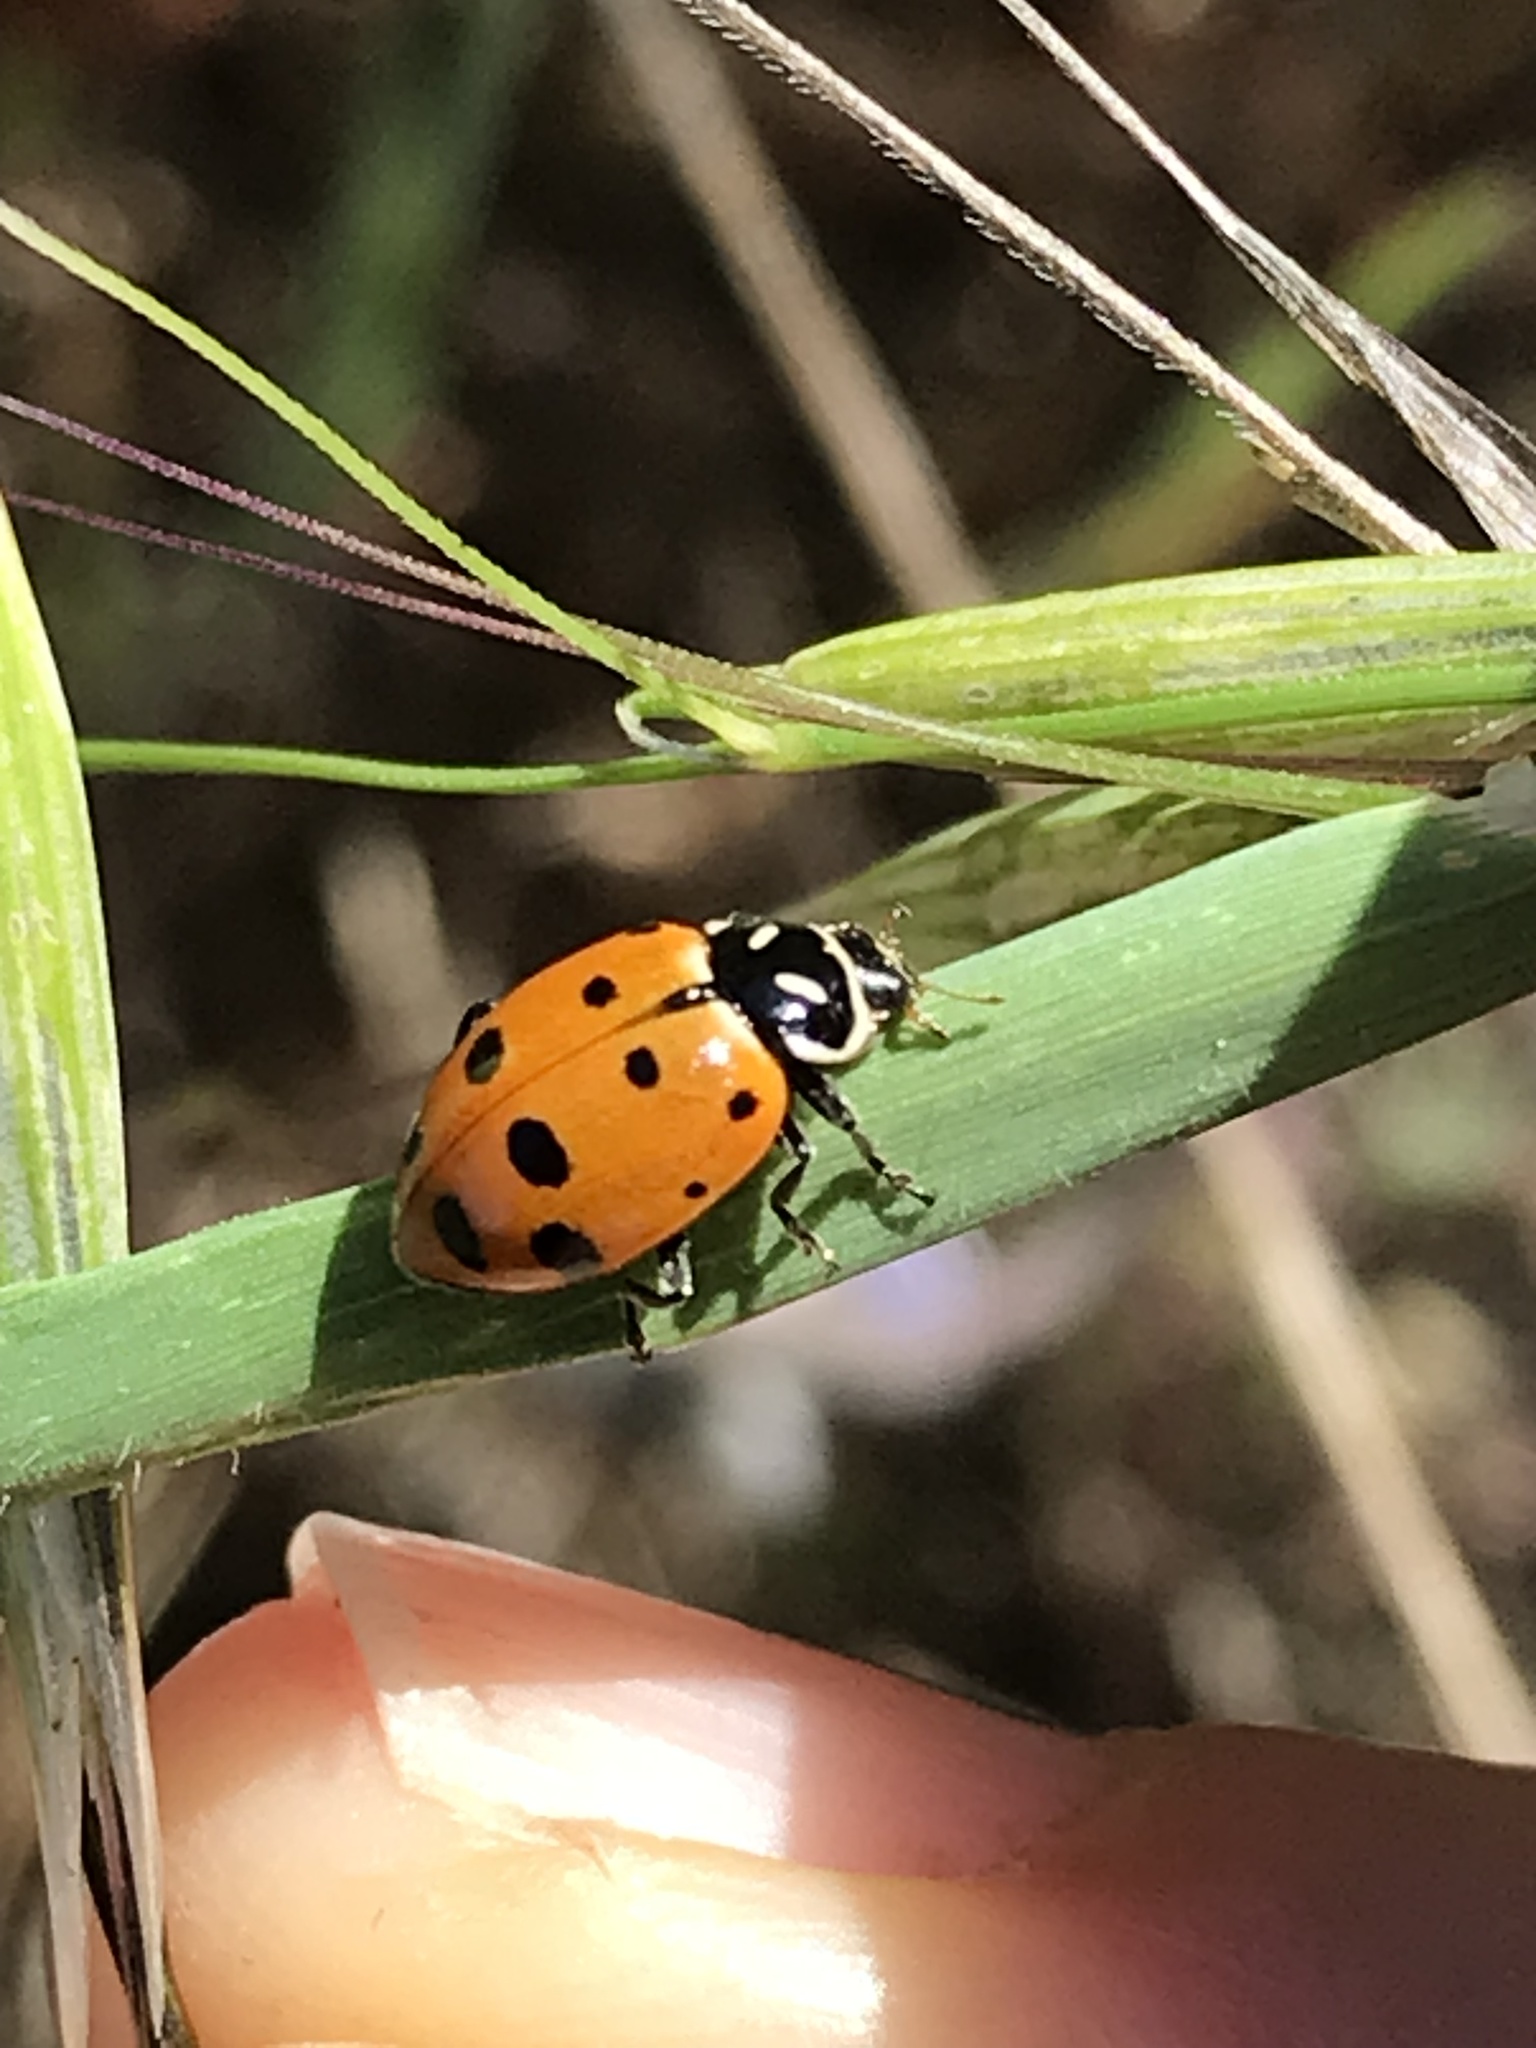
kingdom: Animalia
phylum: Arthropoda
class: Insecta
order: Coleoptera
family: Coccinellidae
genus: Hippodamia
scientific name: Hippodamia convergens
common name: Convergent lady beetle
